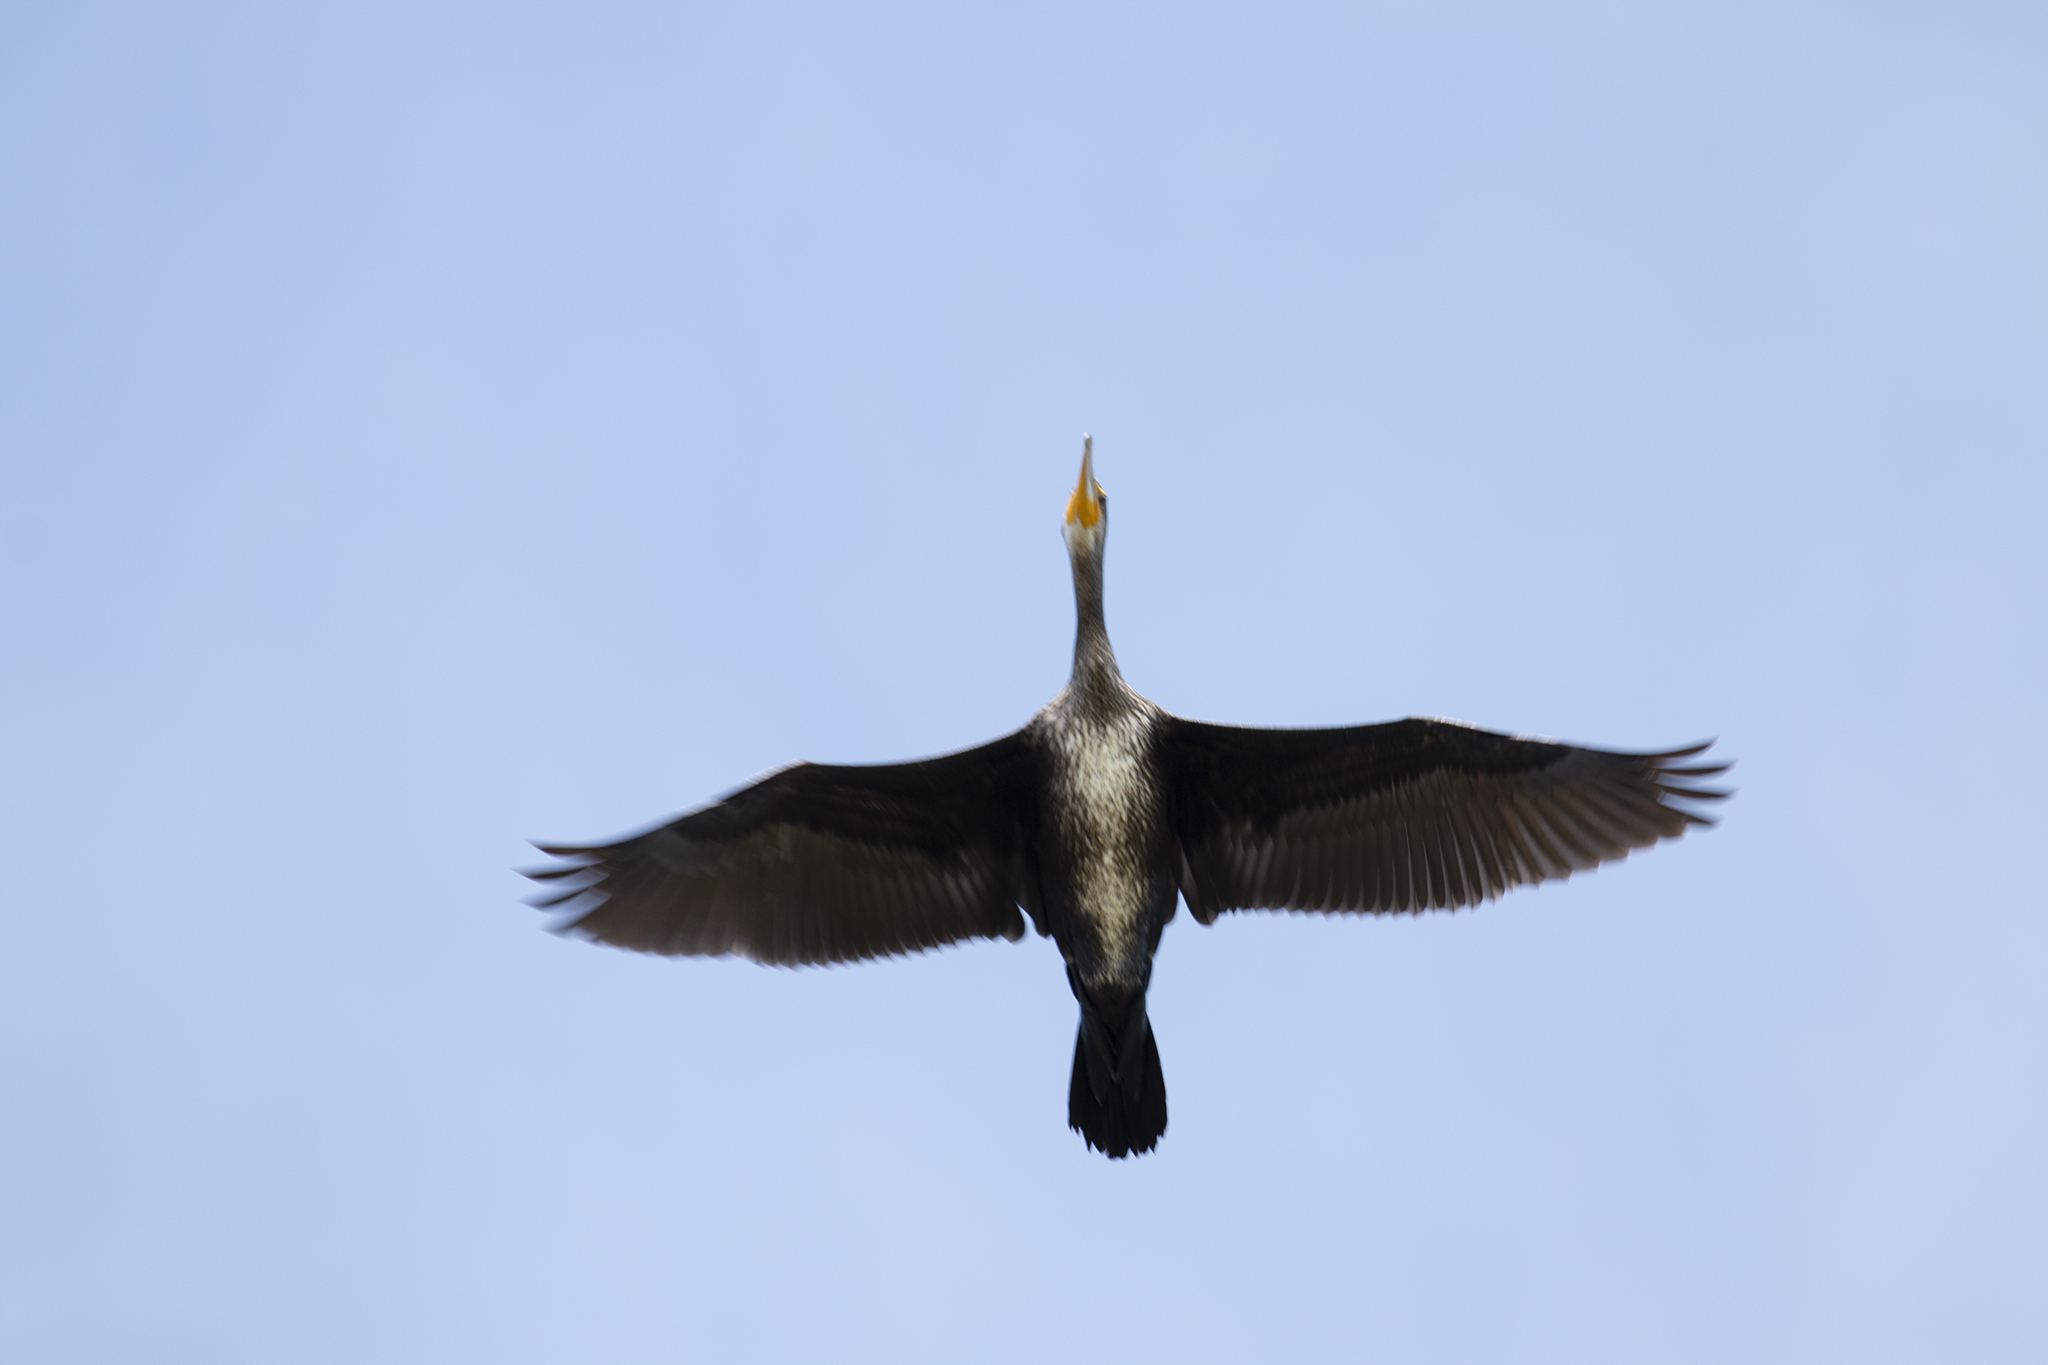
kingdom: Animalia
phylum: Chordata
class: Aves
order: Suliformes
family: Phalacrocoracidae
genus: Phalacrocorax
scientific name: Phalacrocorax carbo
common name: Great cormorant
